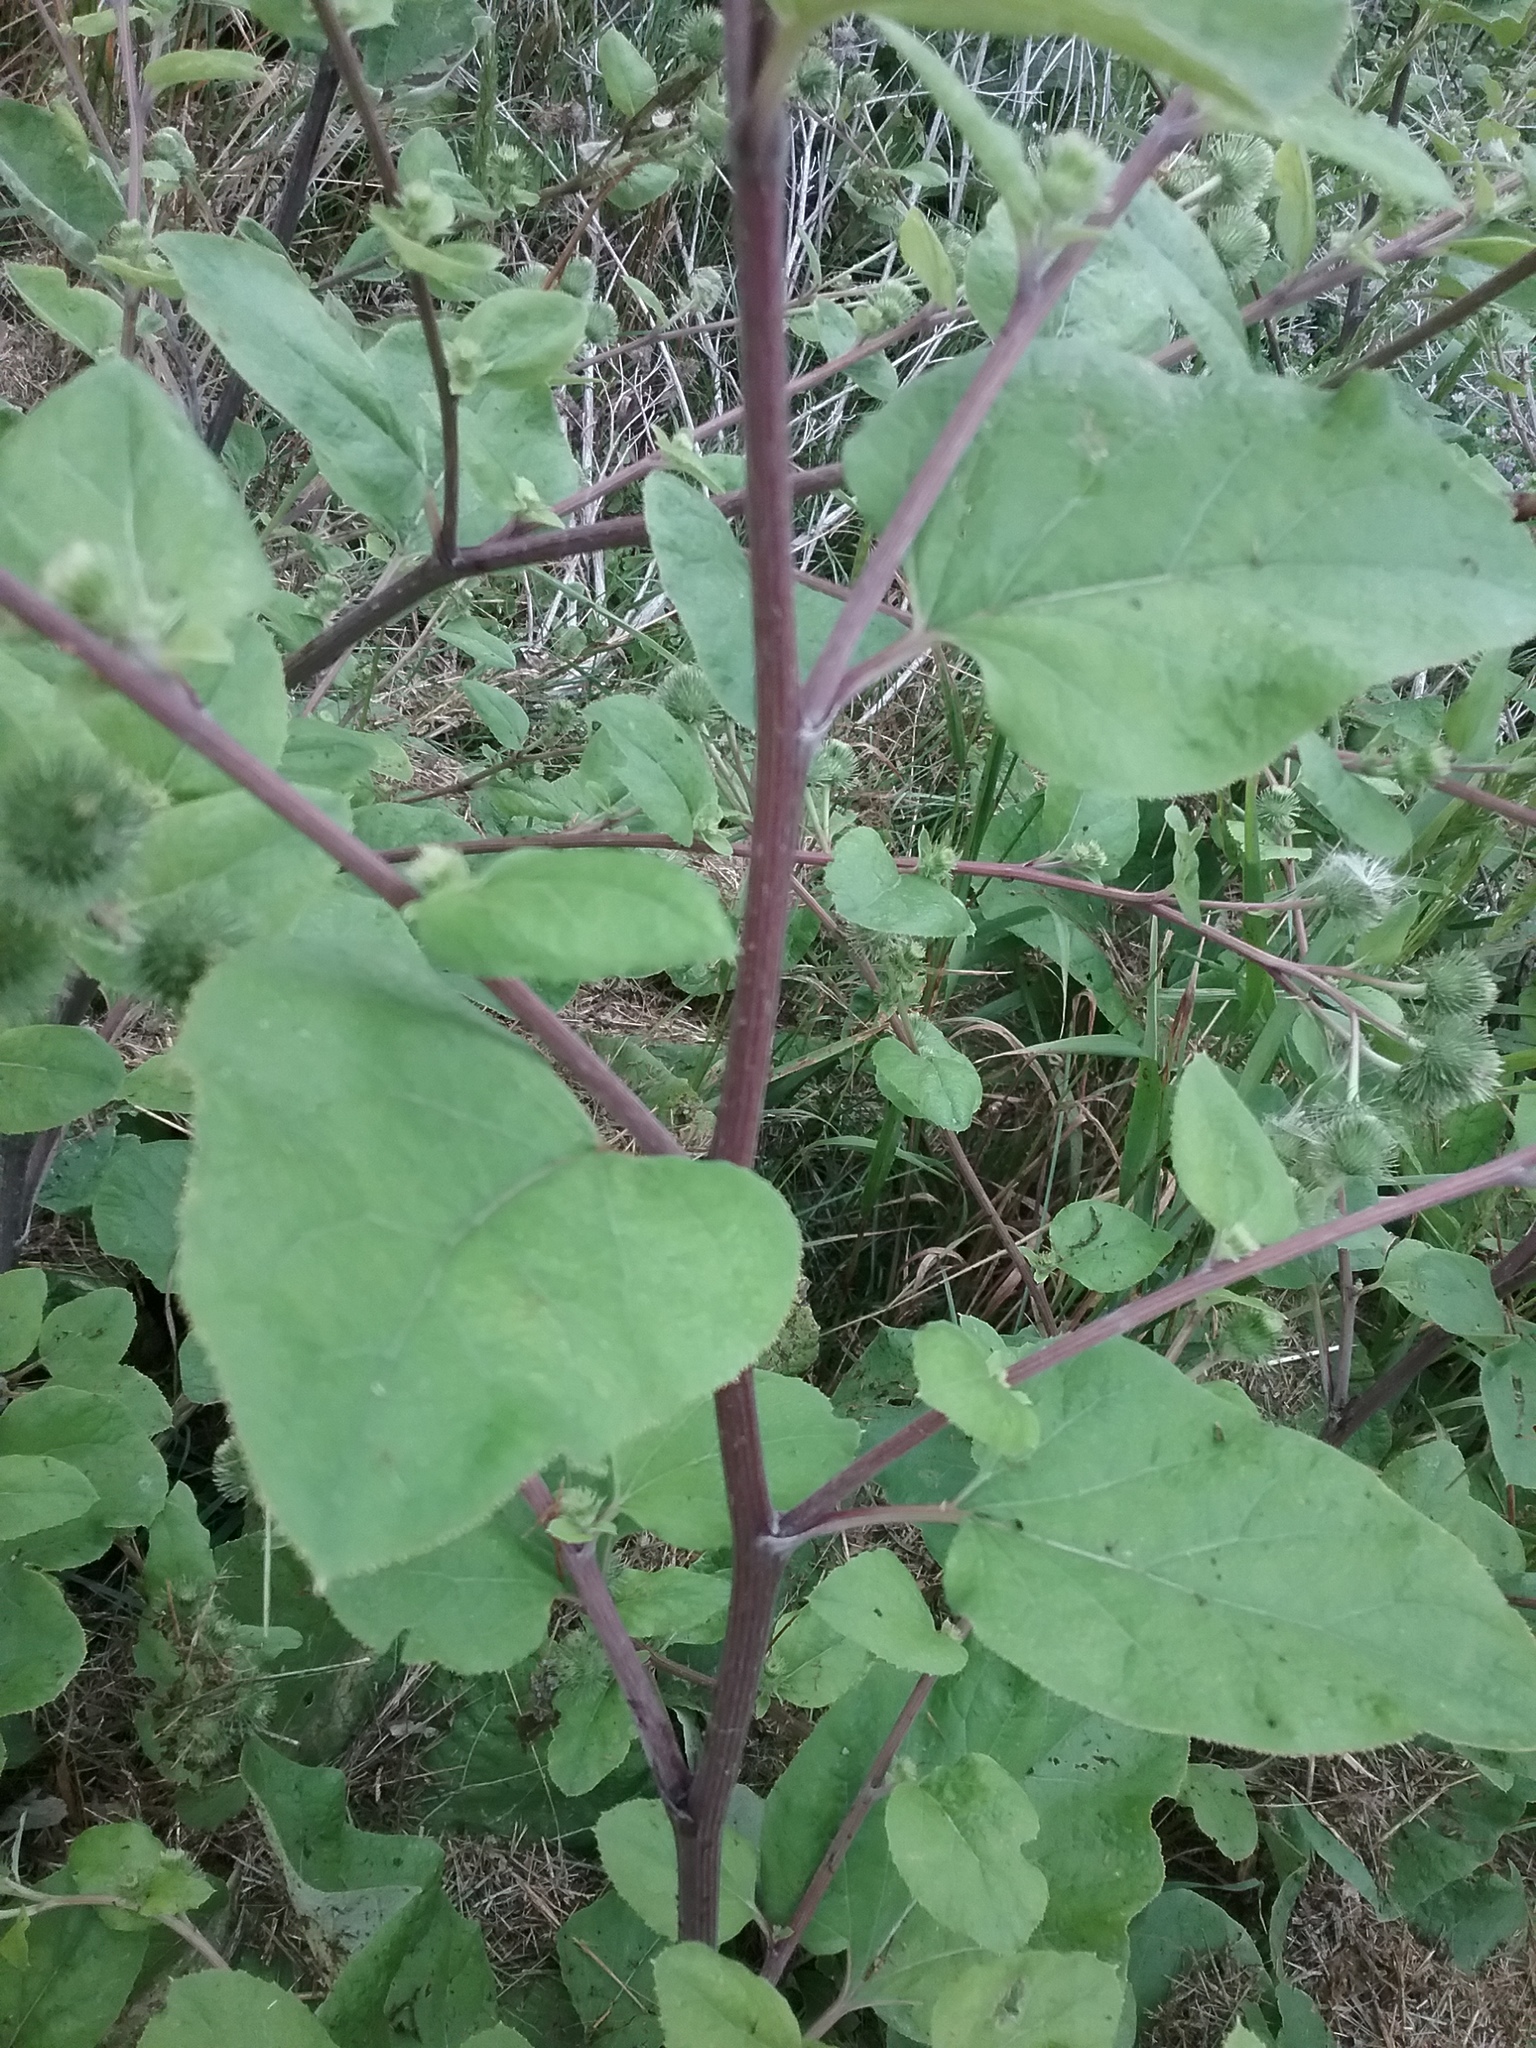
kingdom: Plantae
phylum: Tracheophyta
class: Magnoliopsida
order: Asterales
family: Asteraceae
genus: Arctium
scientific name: Arctium lappa
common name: Greater burdock
